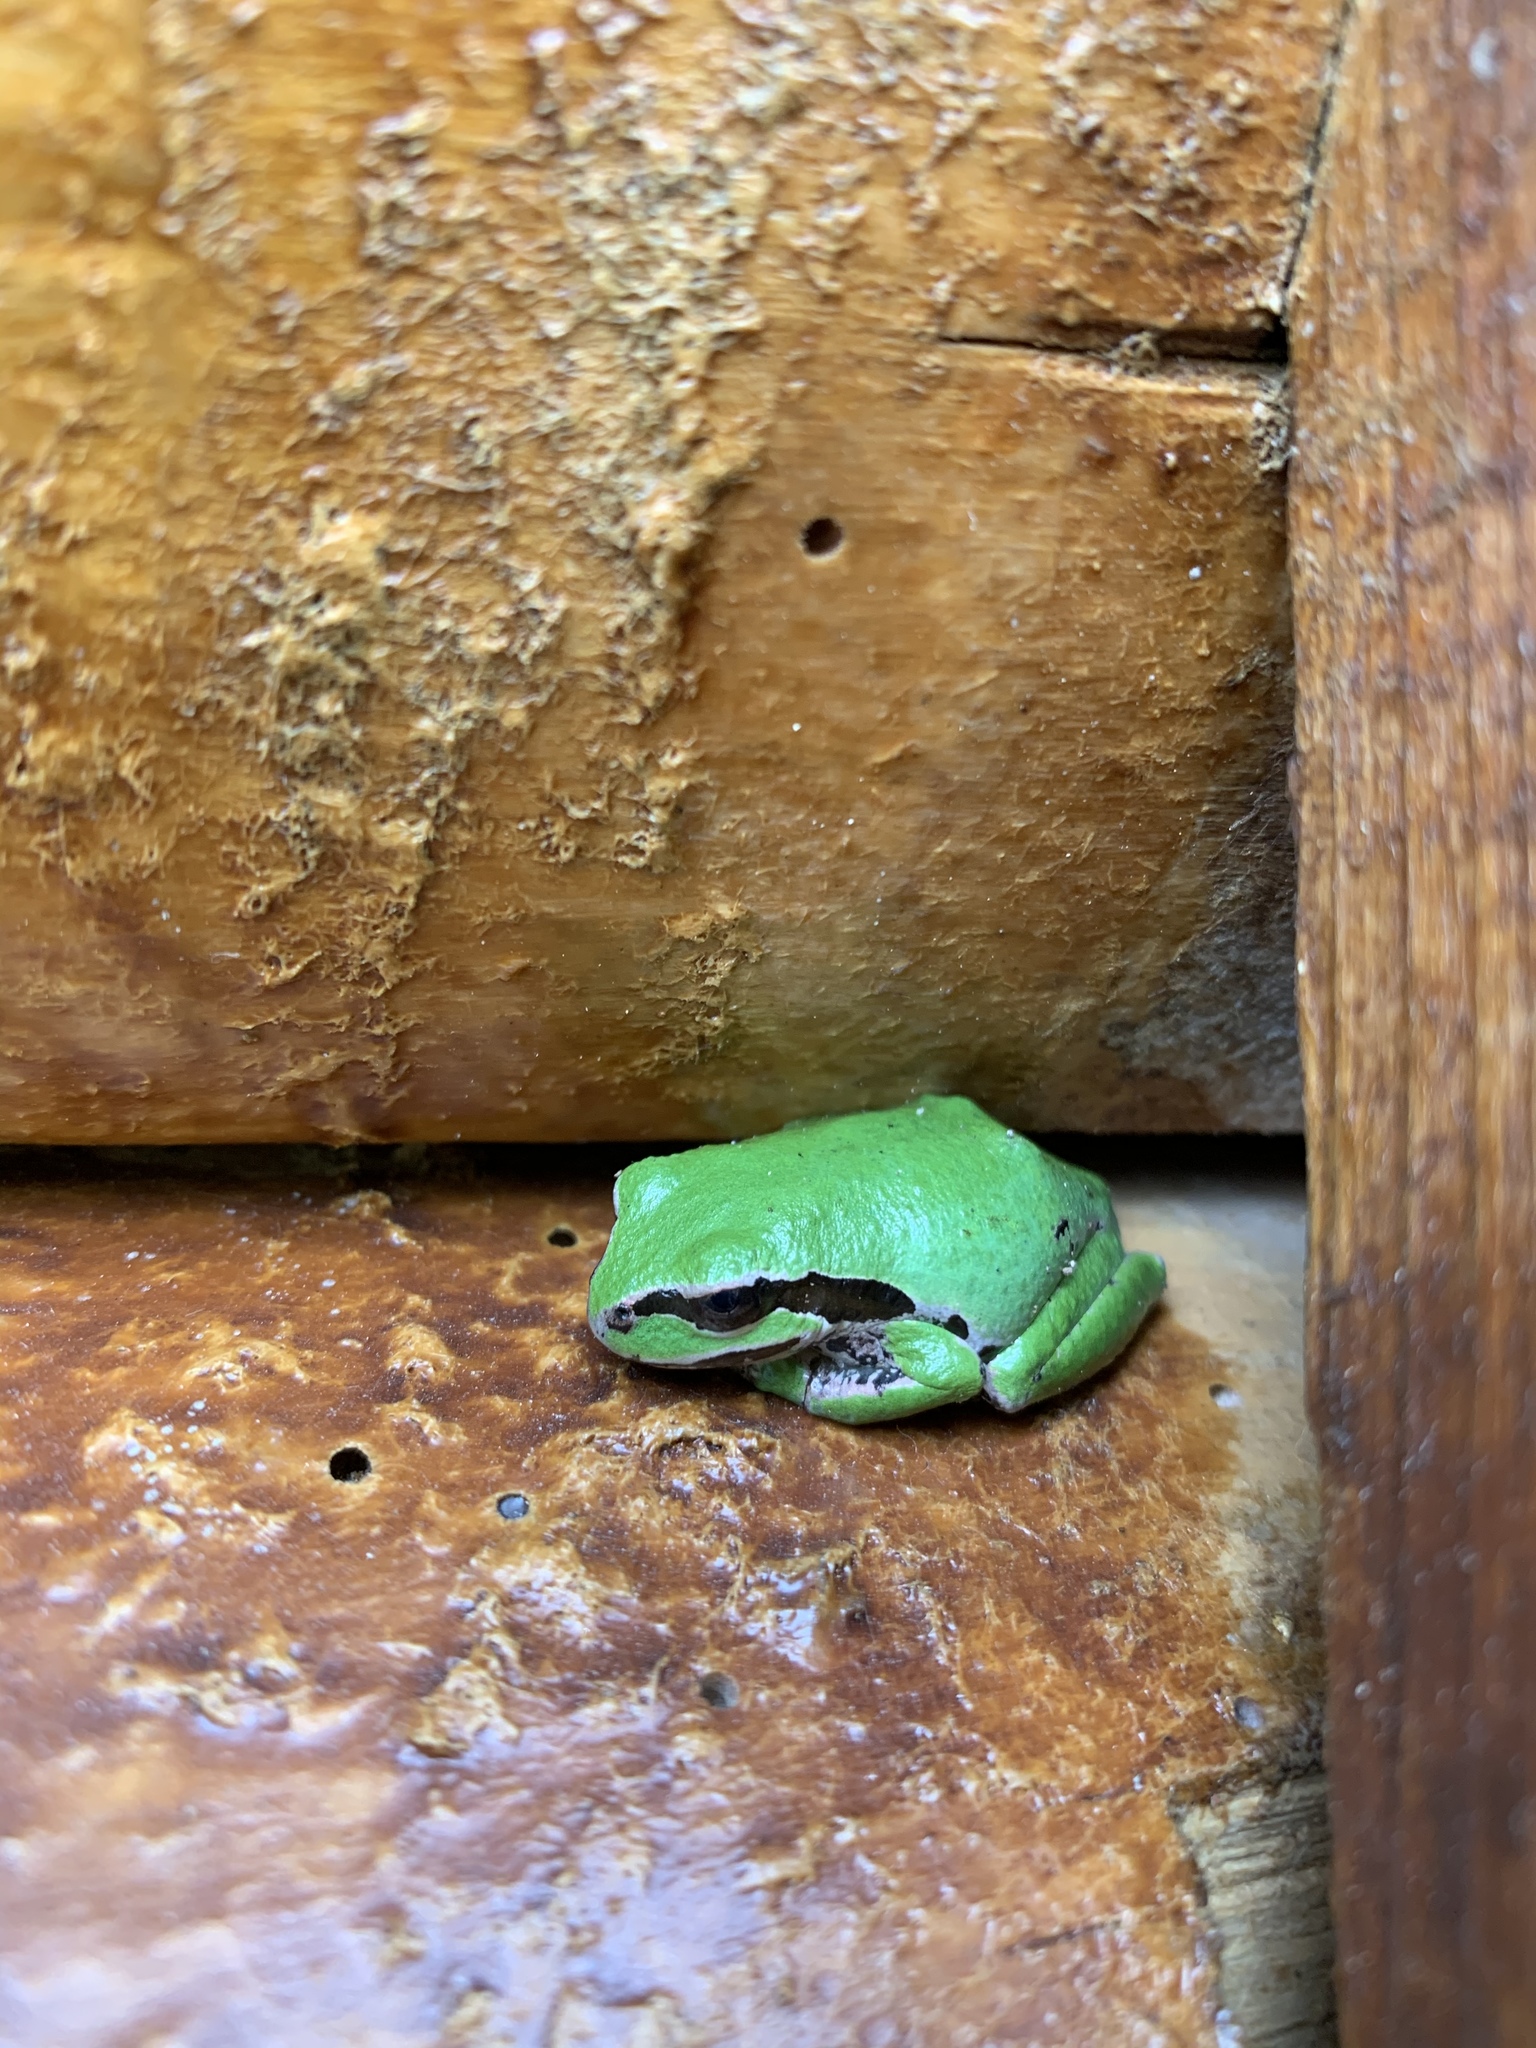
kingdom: Animalia
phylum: Chordata
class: Amphibia
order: Anura
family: Hylidae
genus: Pseudacris
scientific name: Pseudacris regilla
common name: Pacific chorus frog
